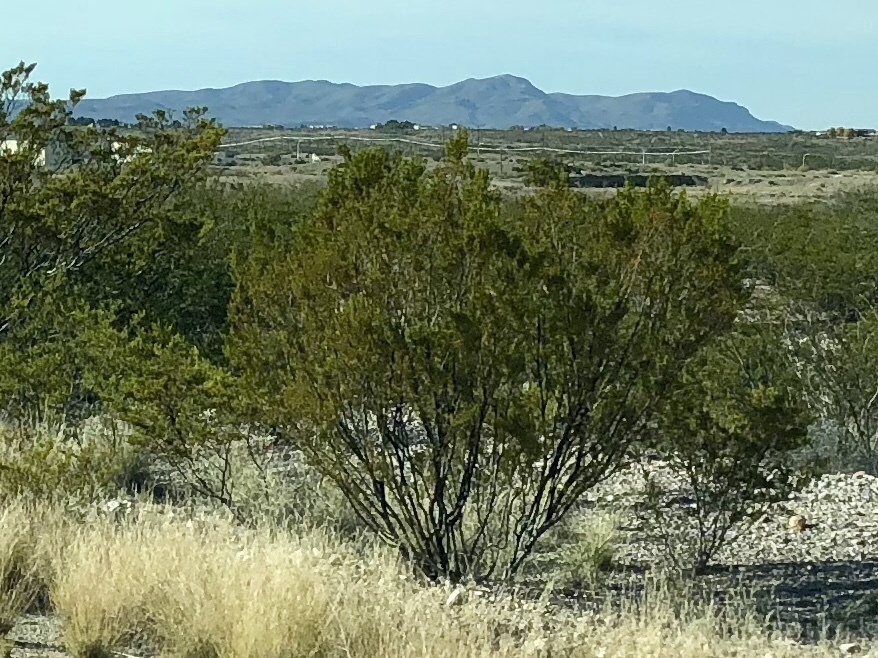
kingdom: Plantae
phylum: Tracheophyta
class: Magnoliopsida
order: Zygophyllales
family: Zygophyllaceae
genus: Larrea
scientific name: Larrea tridentata
